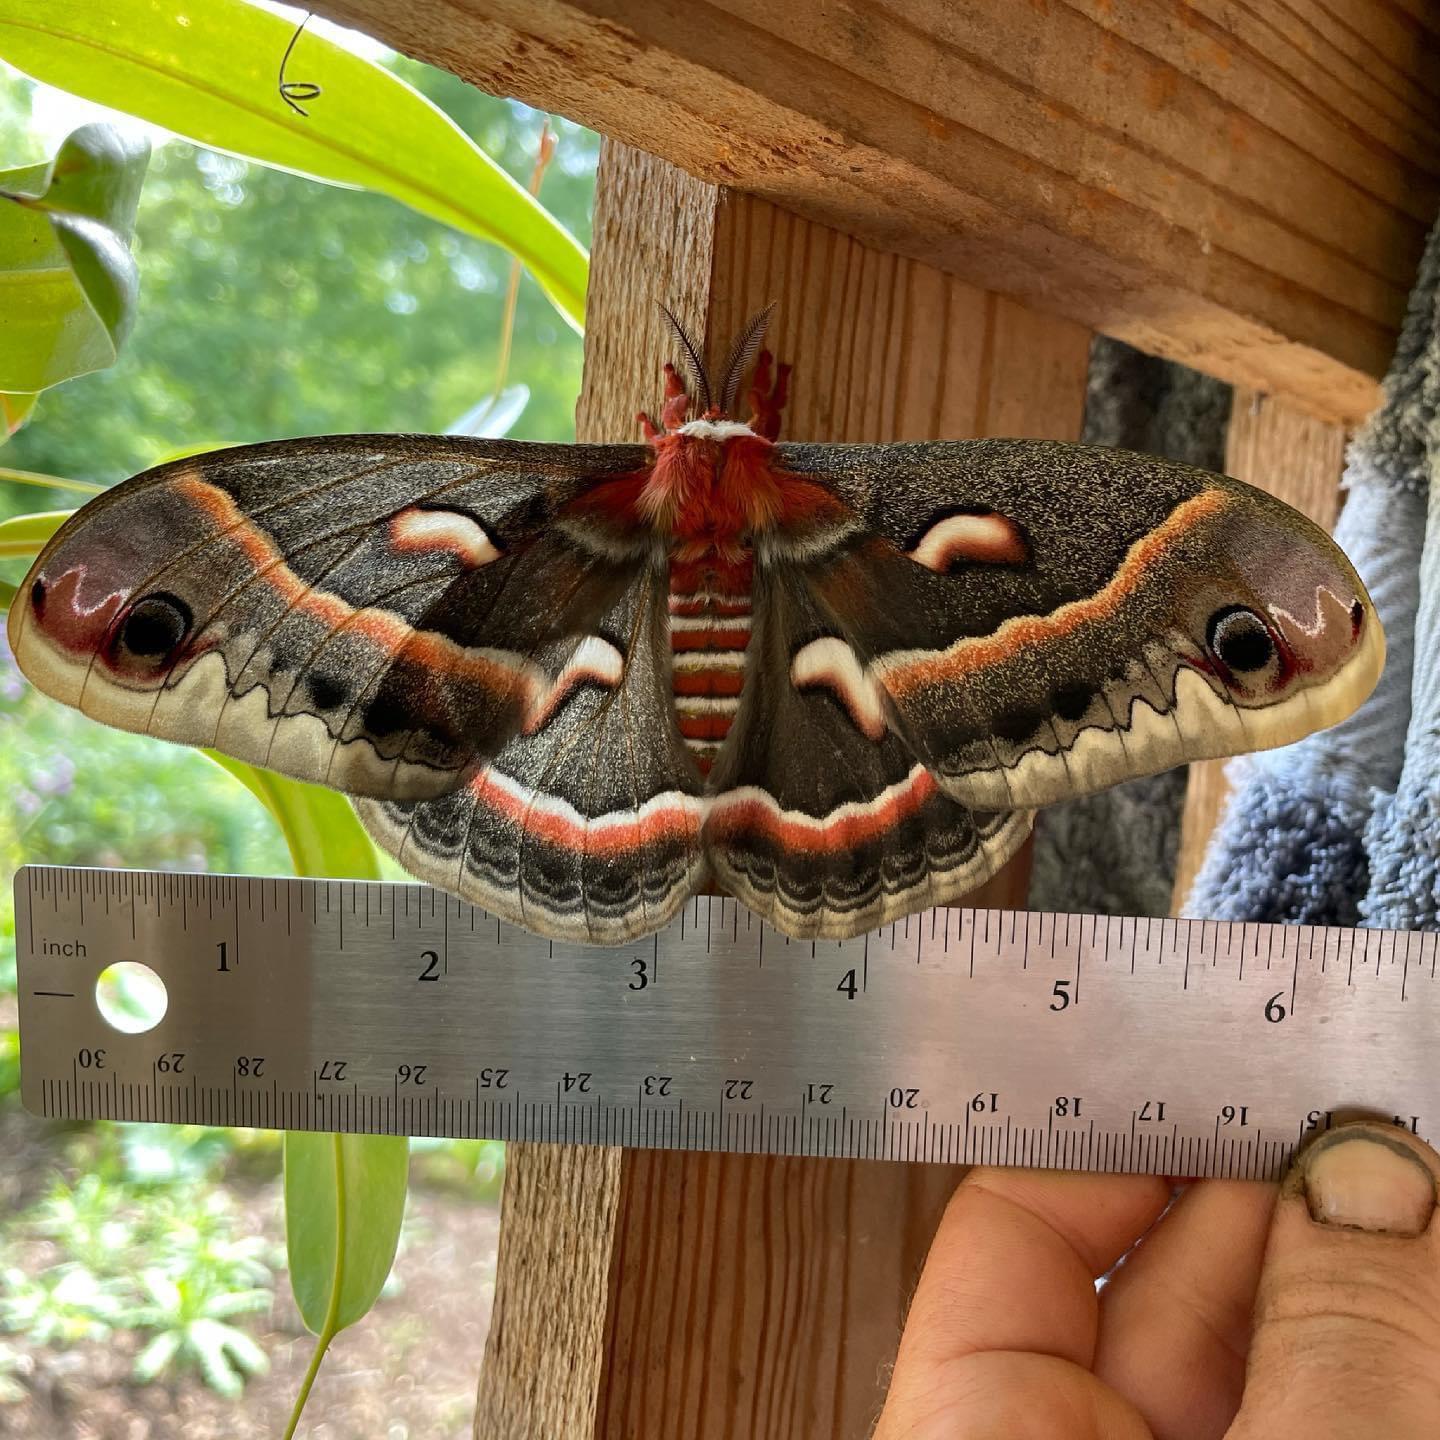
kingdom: Animalia
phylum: Arthropoda
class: Insecta
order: Lepidoptera
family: Saturniidae
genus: Hyalophora
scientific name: Hyalophora cecropia
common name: Cecropia silkmoth
